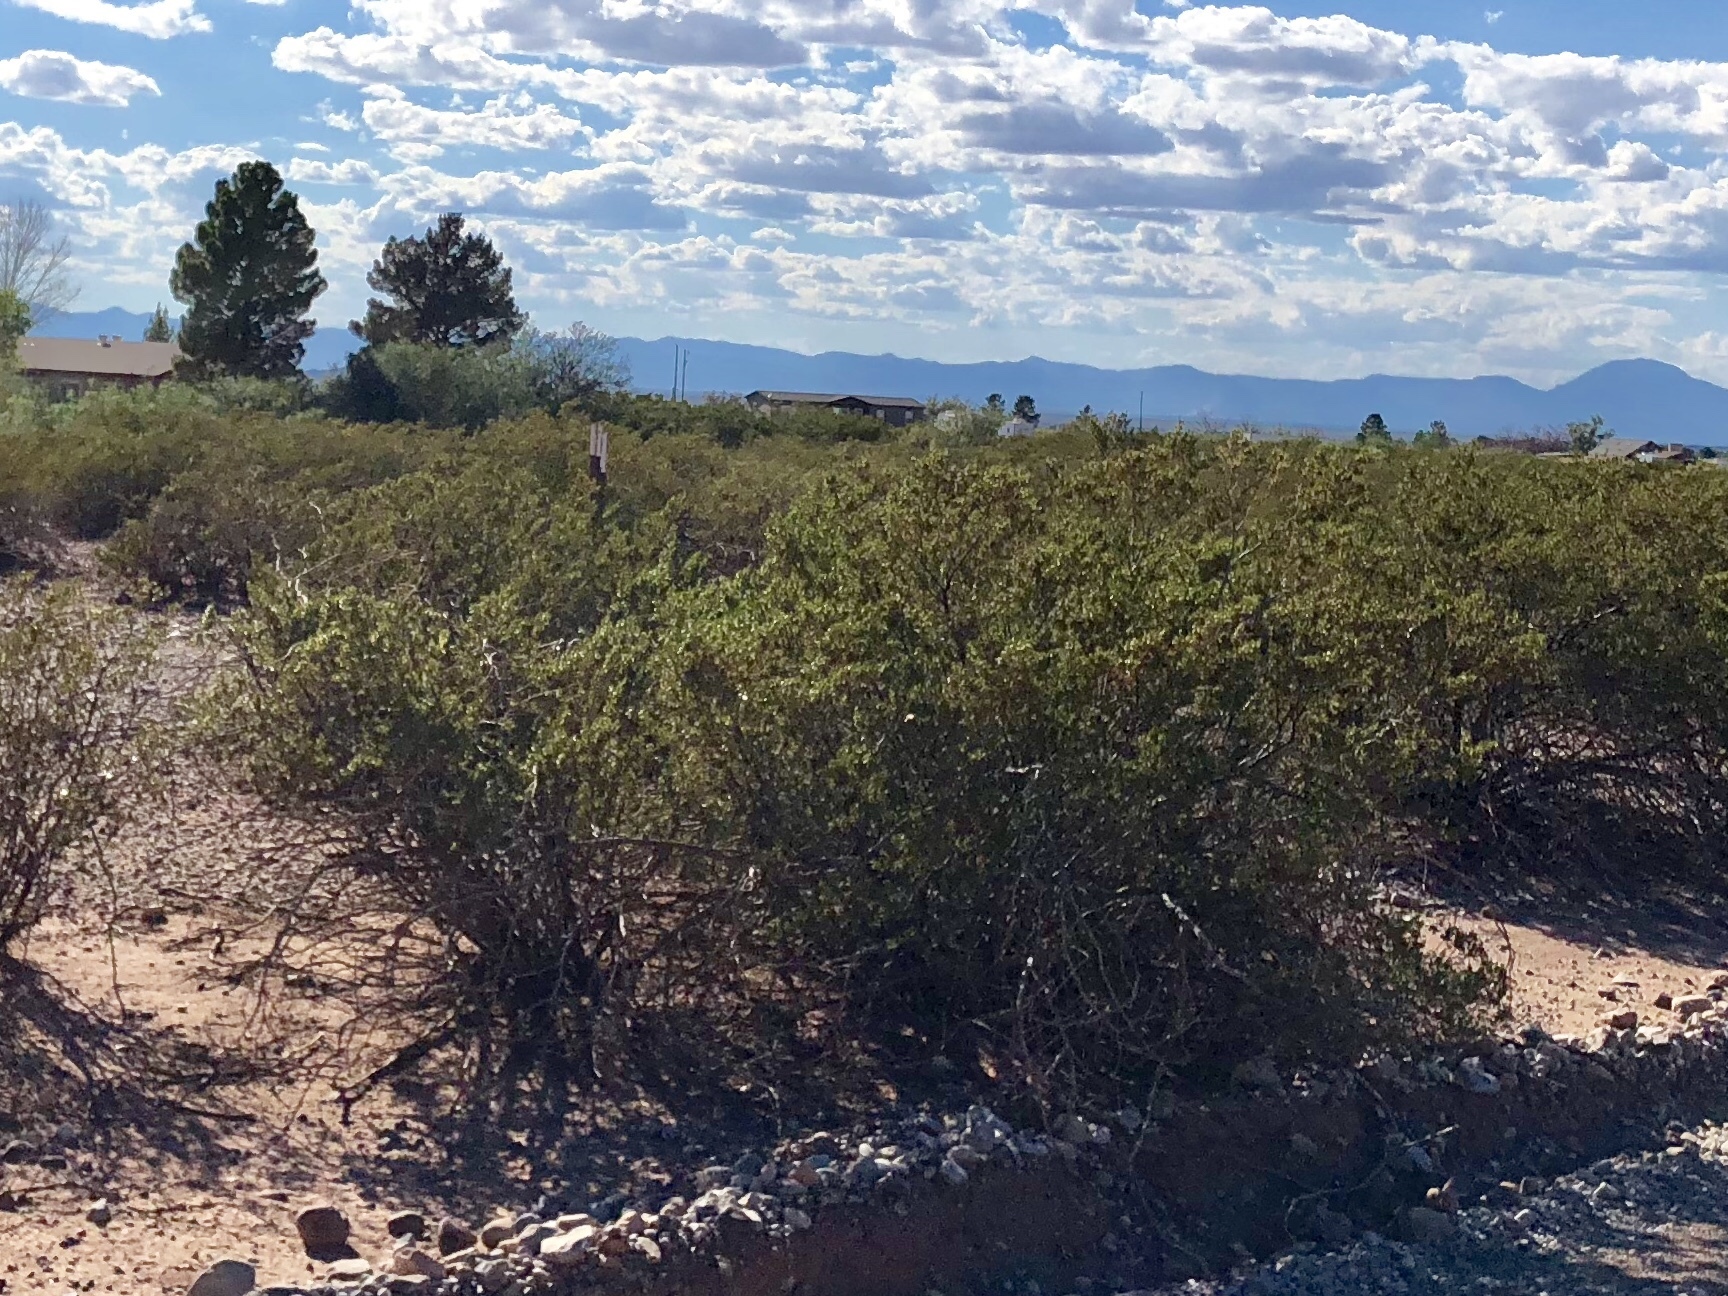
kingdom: Plantae
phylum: Tracheophyta
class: Magnoliopsida
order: Zygophyllales
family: Zygophyllaceae
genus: Larrea
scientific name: Larrea tridentata
